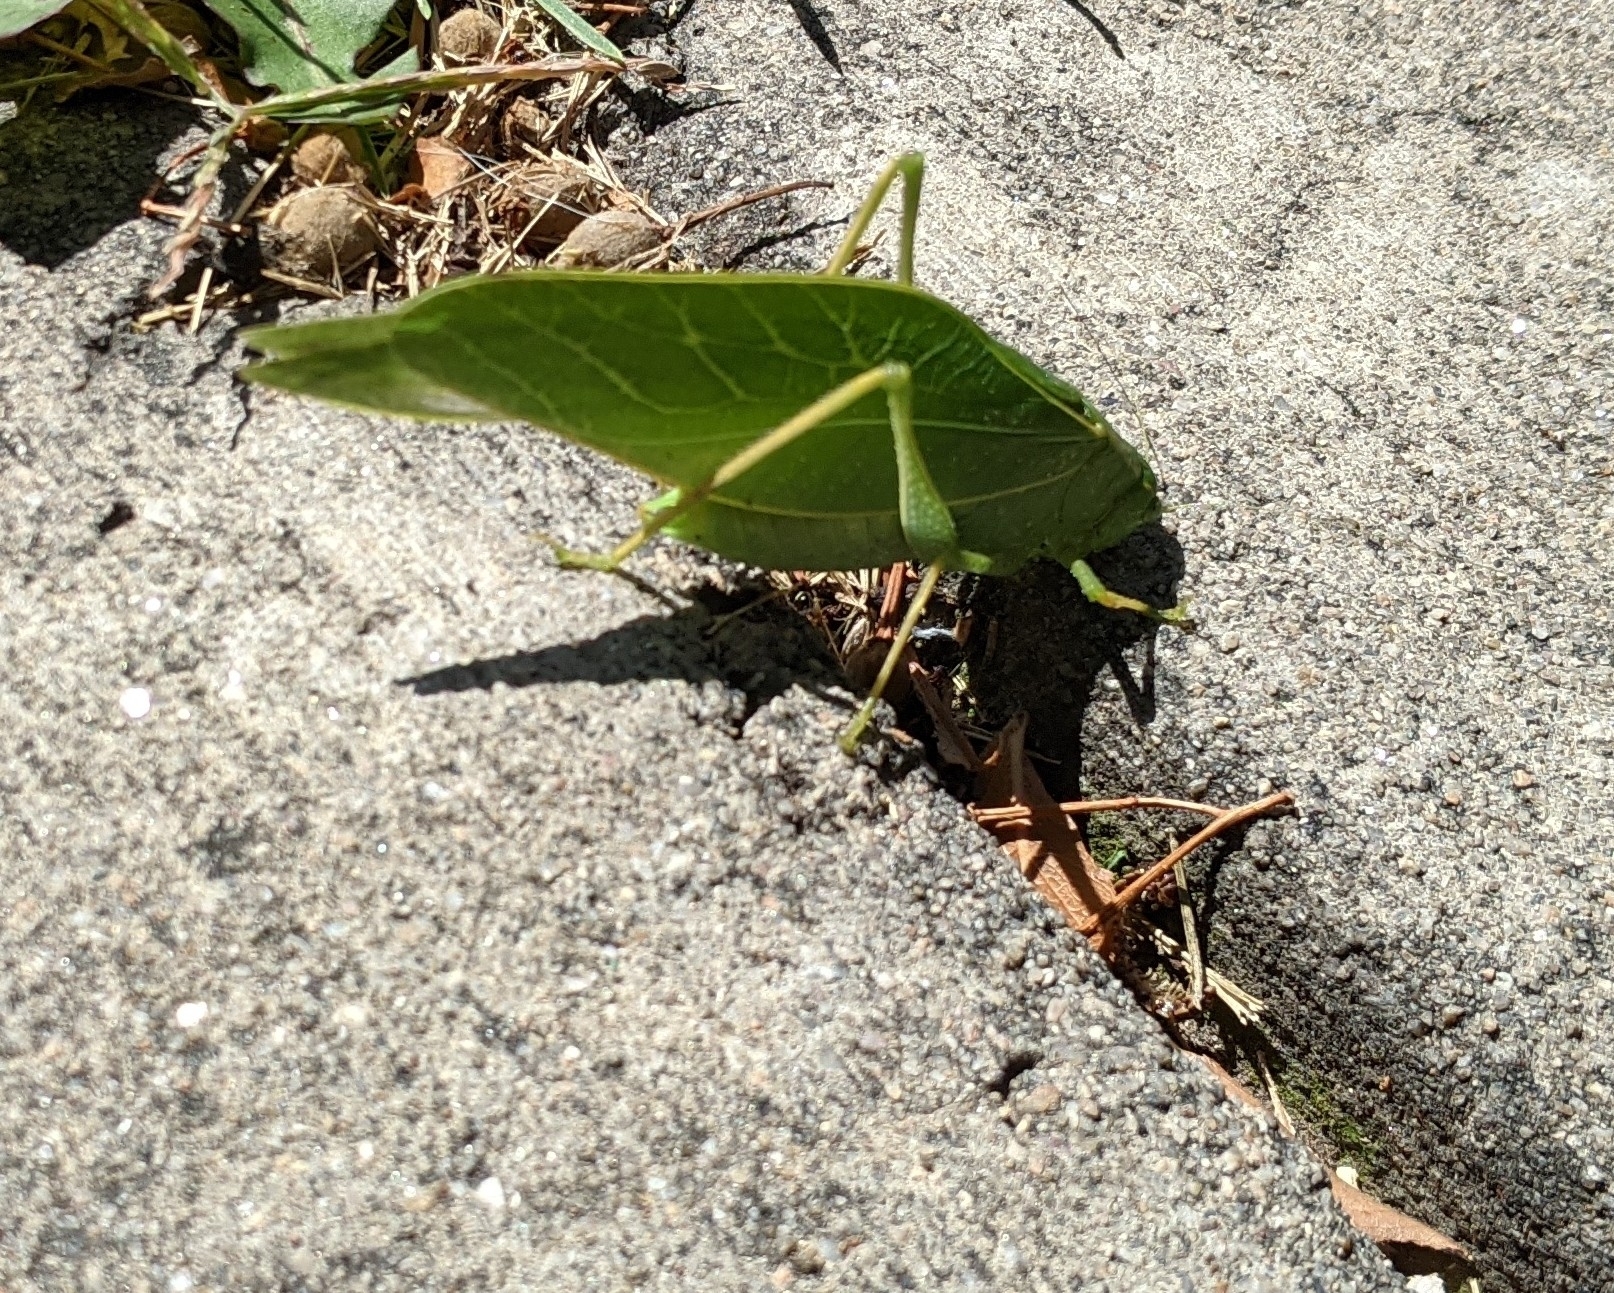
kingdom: Animalia
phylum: Arthropoda
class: Insecta
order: Orthoptera
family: Tettigoniidae
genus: Microcentrum
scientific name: Microcentrum rhombifolium
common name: Broad-winged katydid
